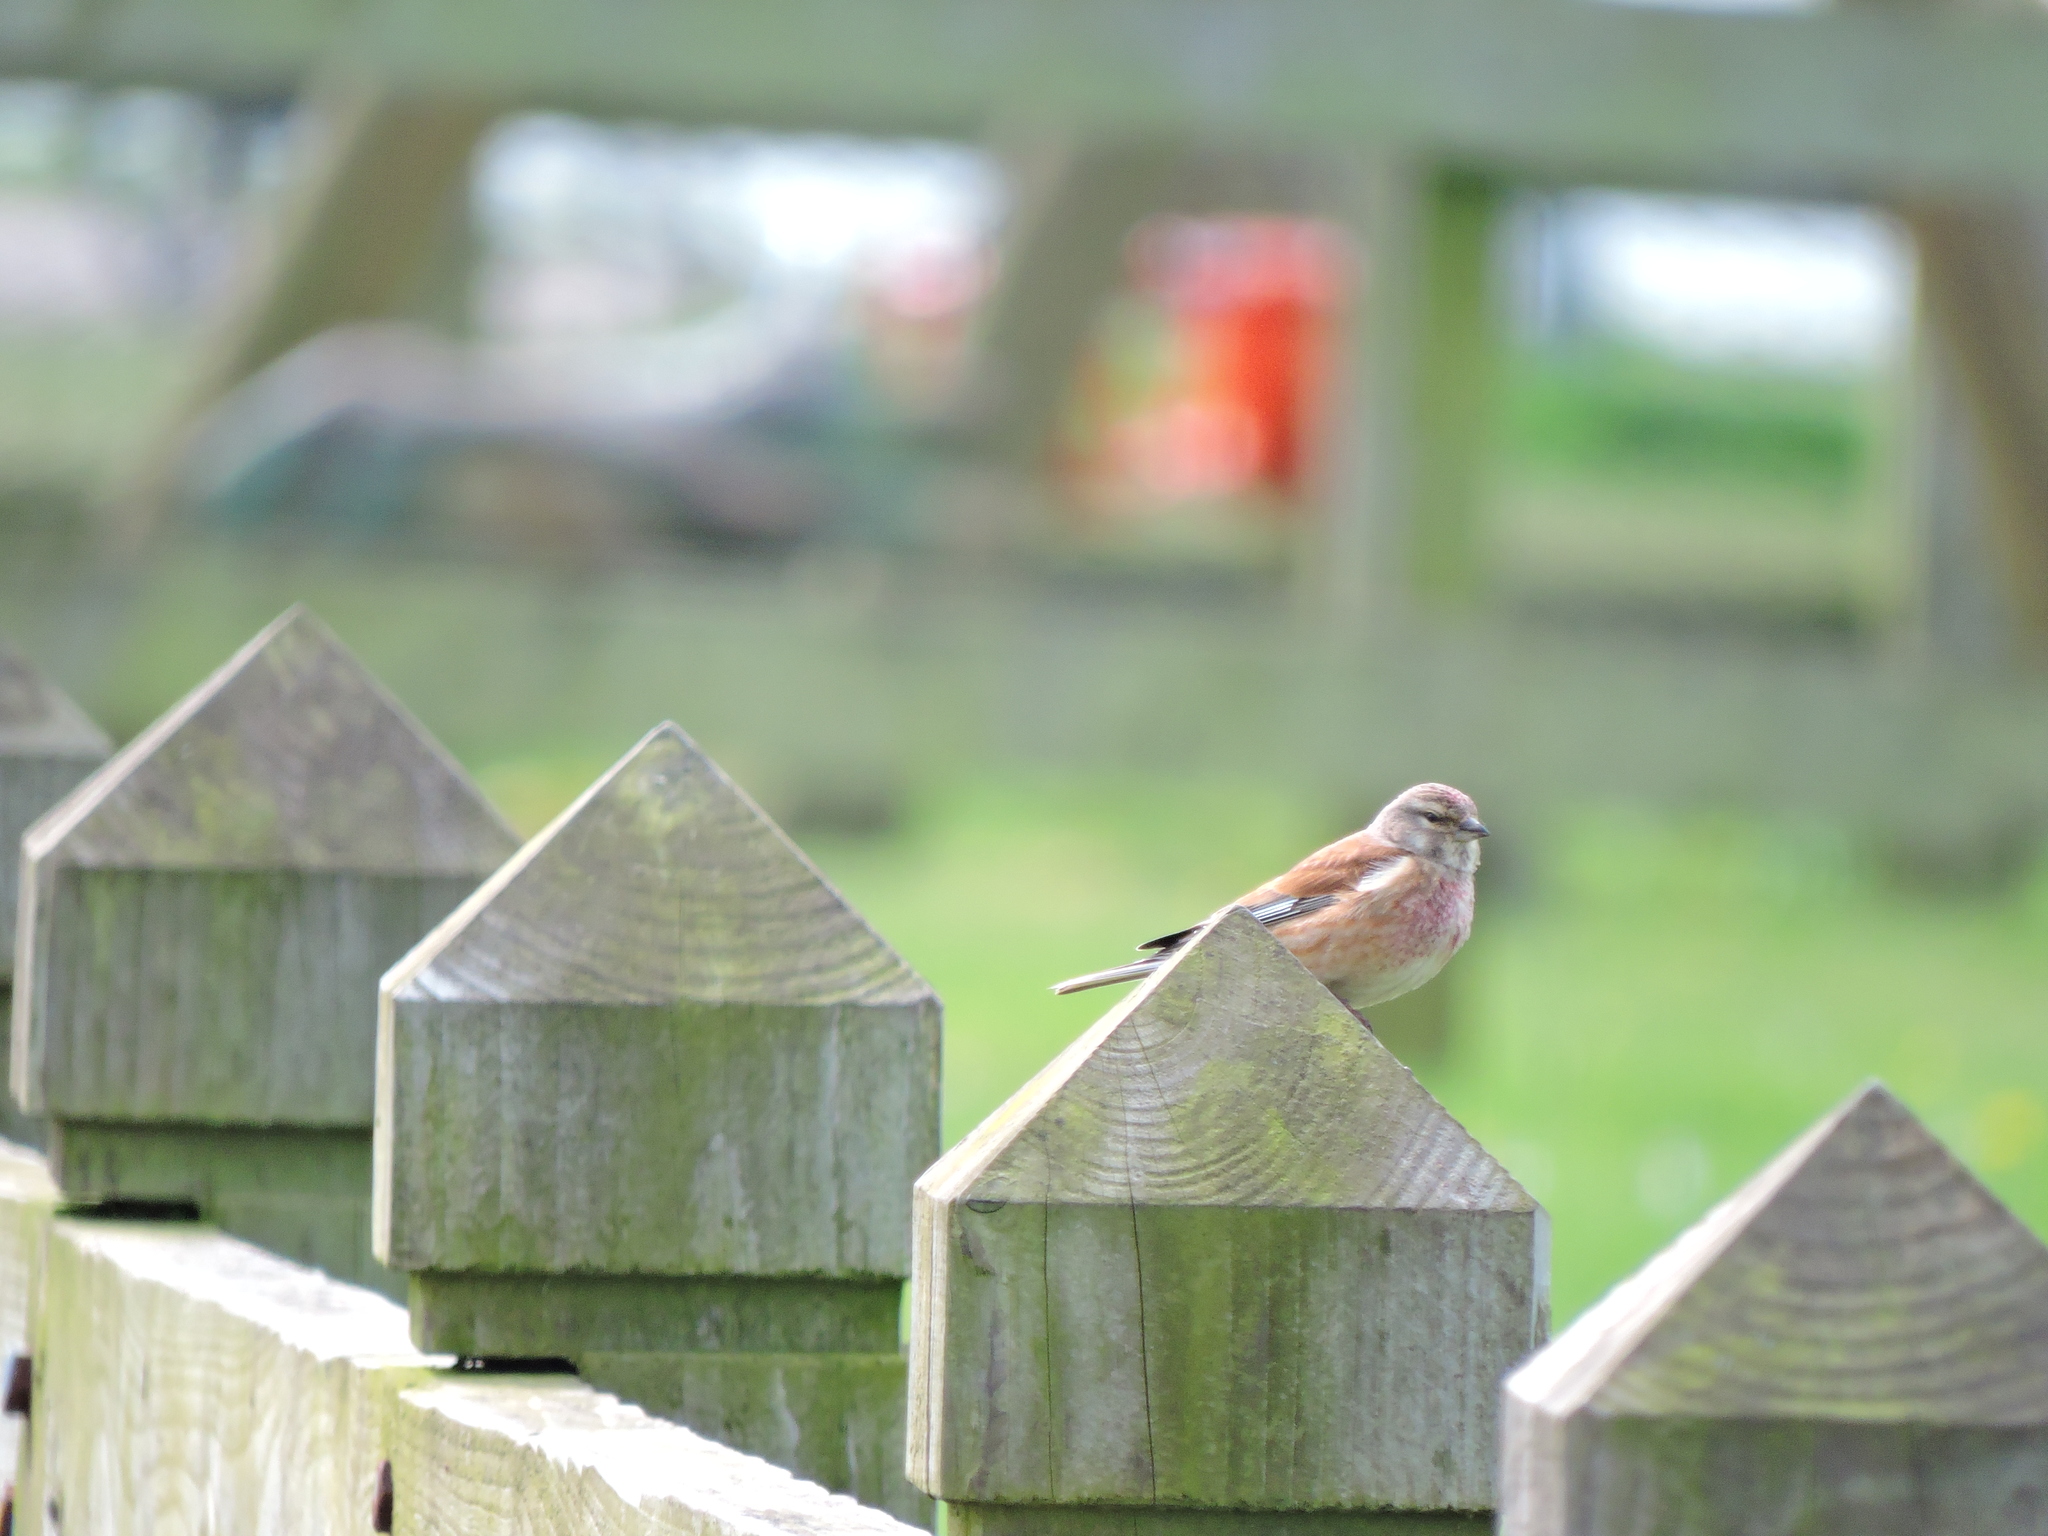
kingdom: Animalia
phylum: Chordata
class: Aves
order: Passeriformes
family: Fringillidae
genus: Linaria
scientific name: Linaria cannabina
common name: Common linnet
